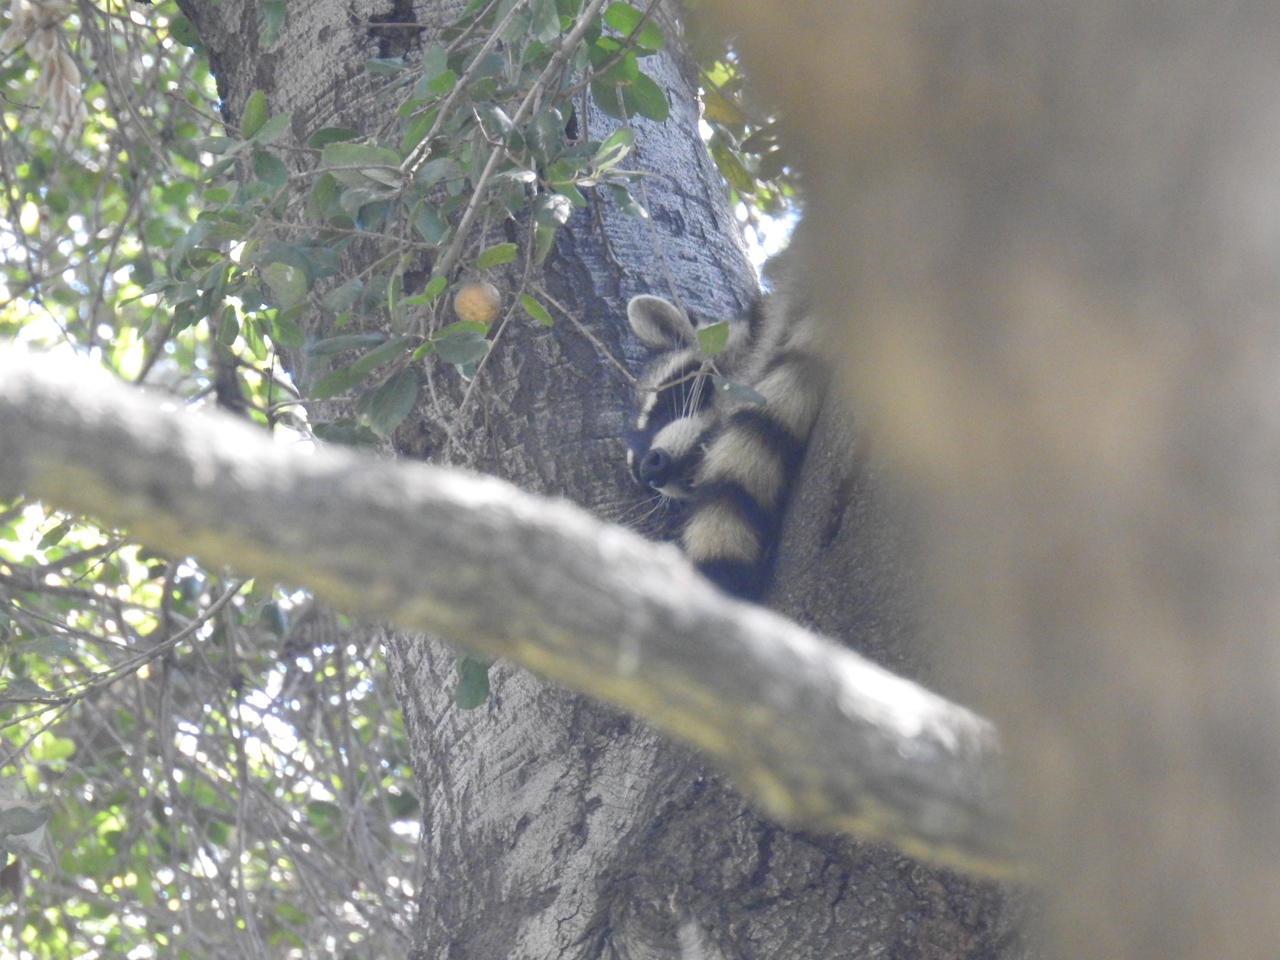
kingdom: Animalia
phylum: Chordata
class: Mammalia
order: Carnivora
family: Procyonidae
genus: Procyon
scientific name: Procyon lotor
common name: Raccoon
